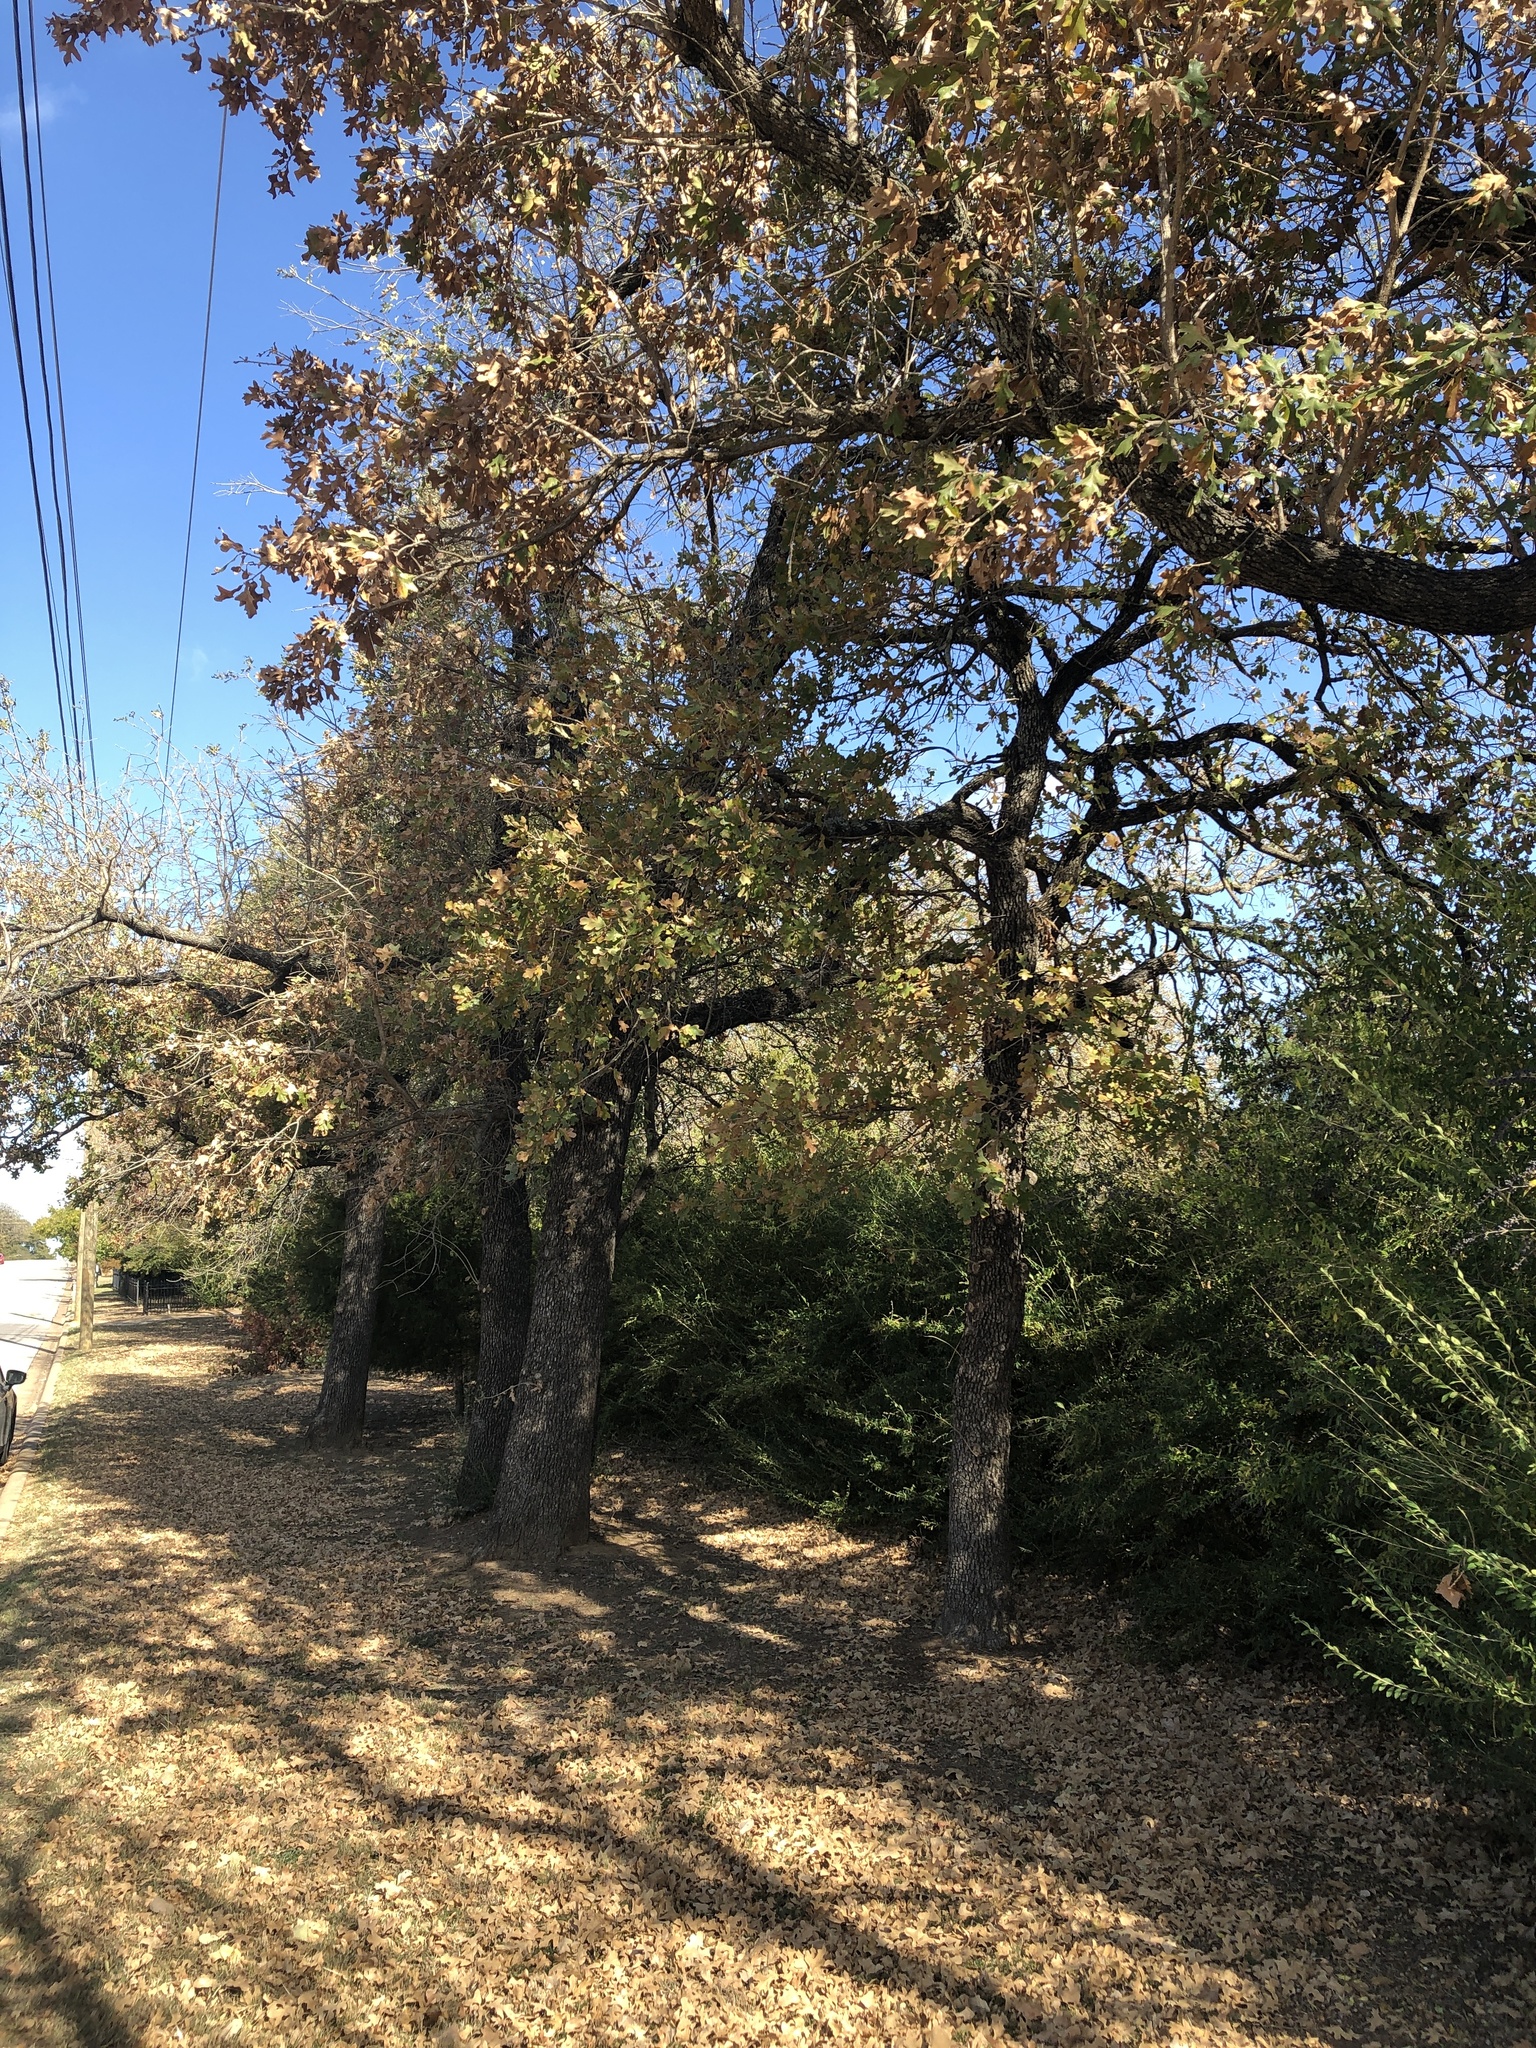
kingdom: Plantae
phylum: Tracheophyta
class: Magnoliopsida
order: Fagales
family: Fagaceae
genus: Quercus
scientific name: Quercus stellata
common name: Post oak
